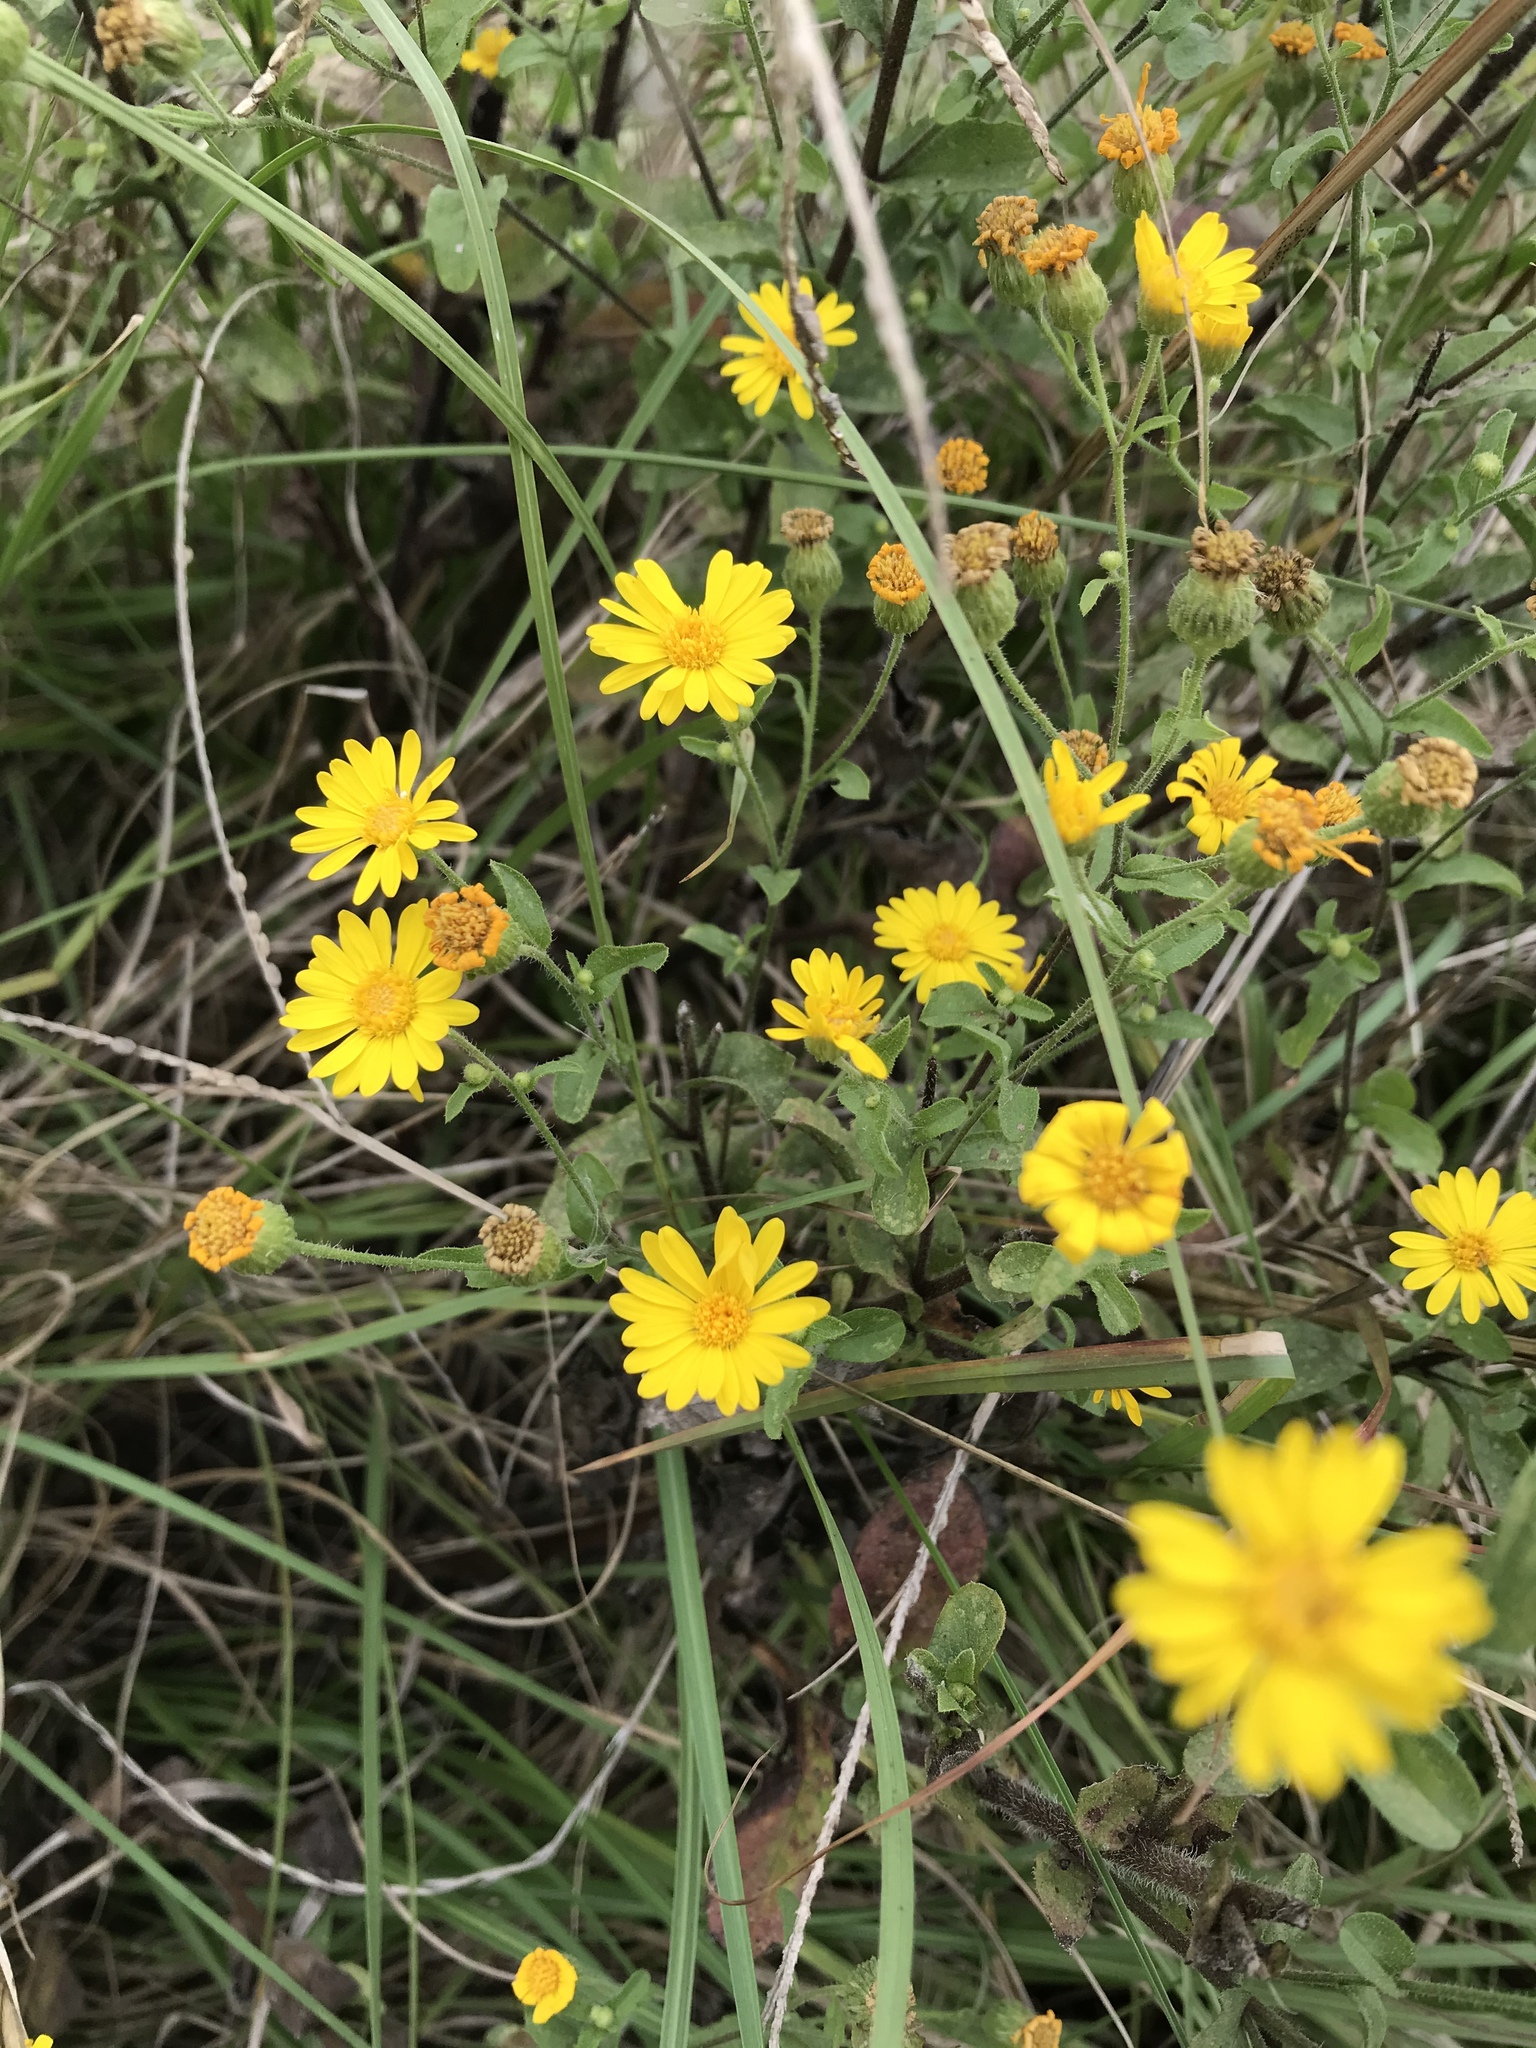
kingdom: Plantae
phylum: Tracheophyta
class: Magnoliopsida
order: Asterales
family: Asteraceae
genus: Heterotheca
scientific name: Heterotheca subaxillaris
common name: Camphorweed
